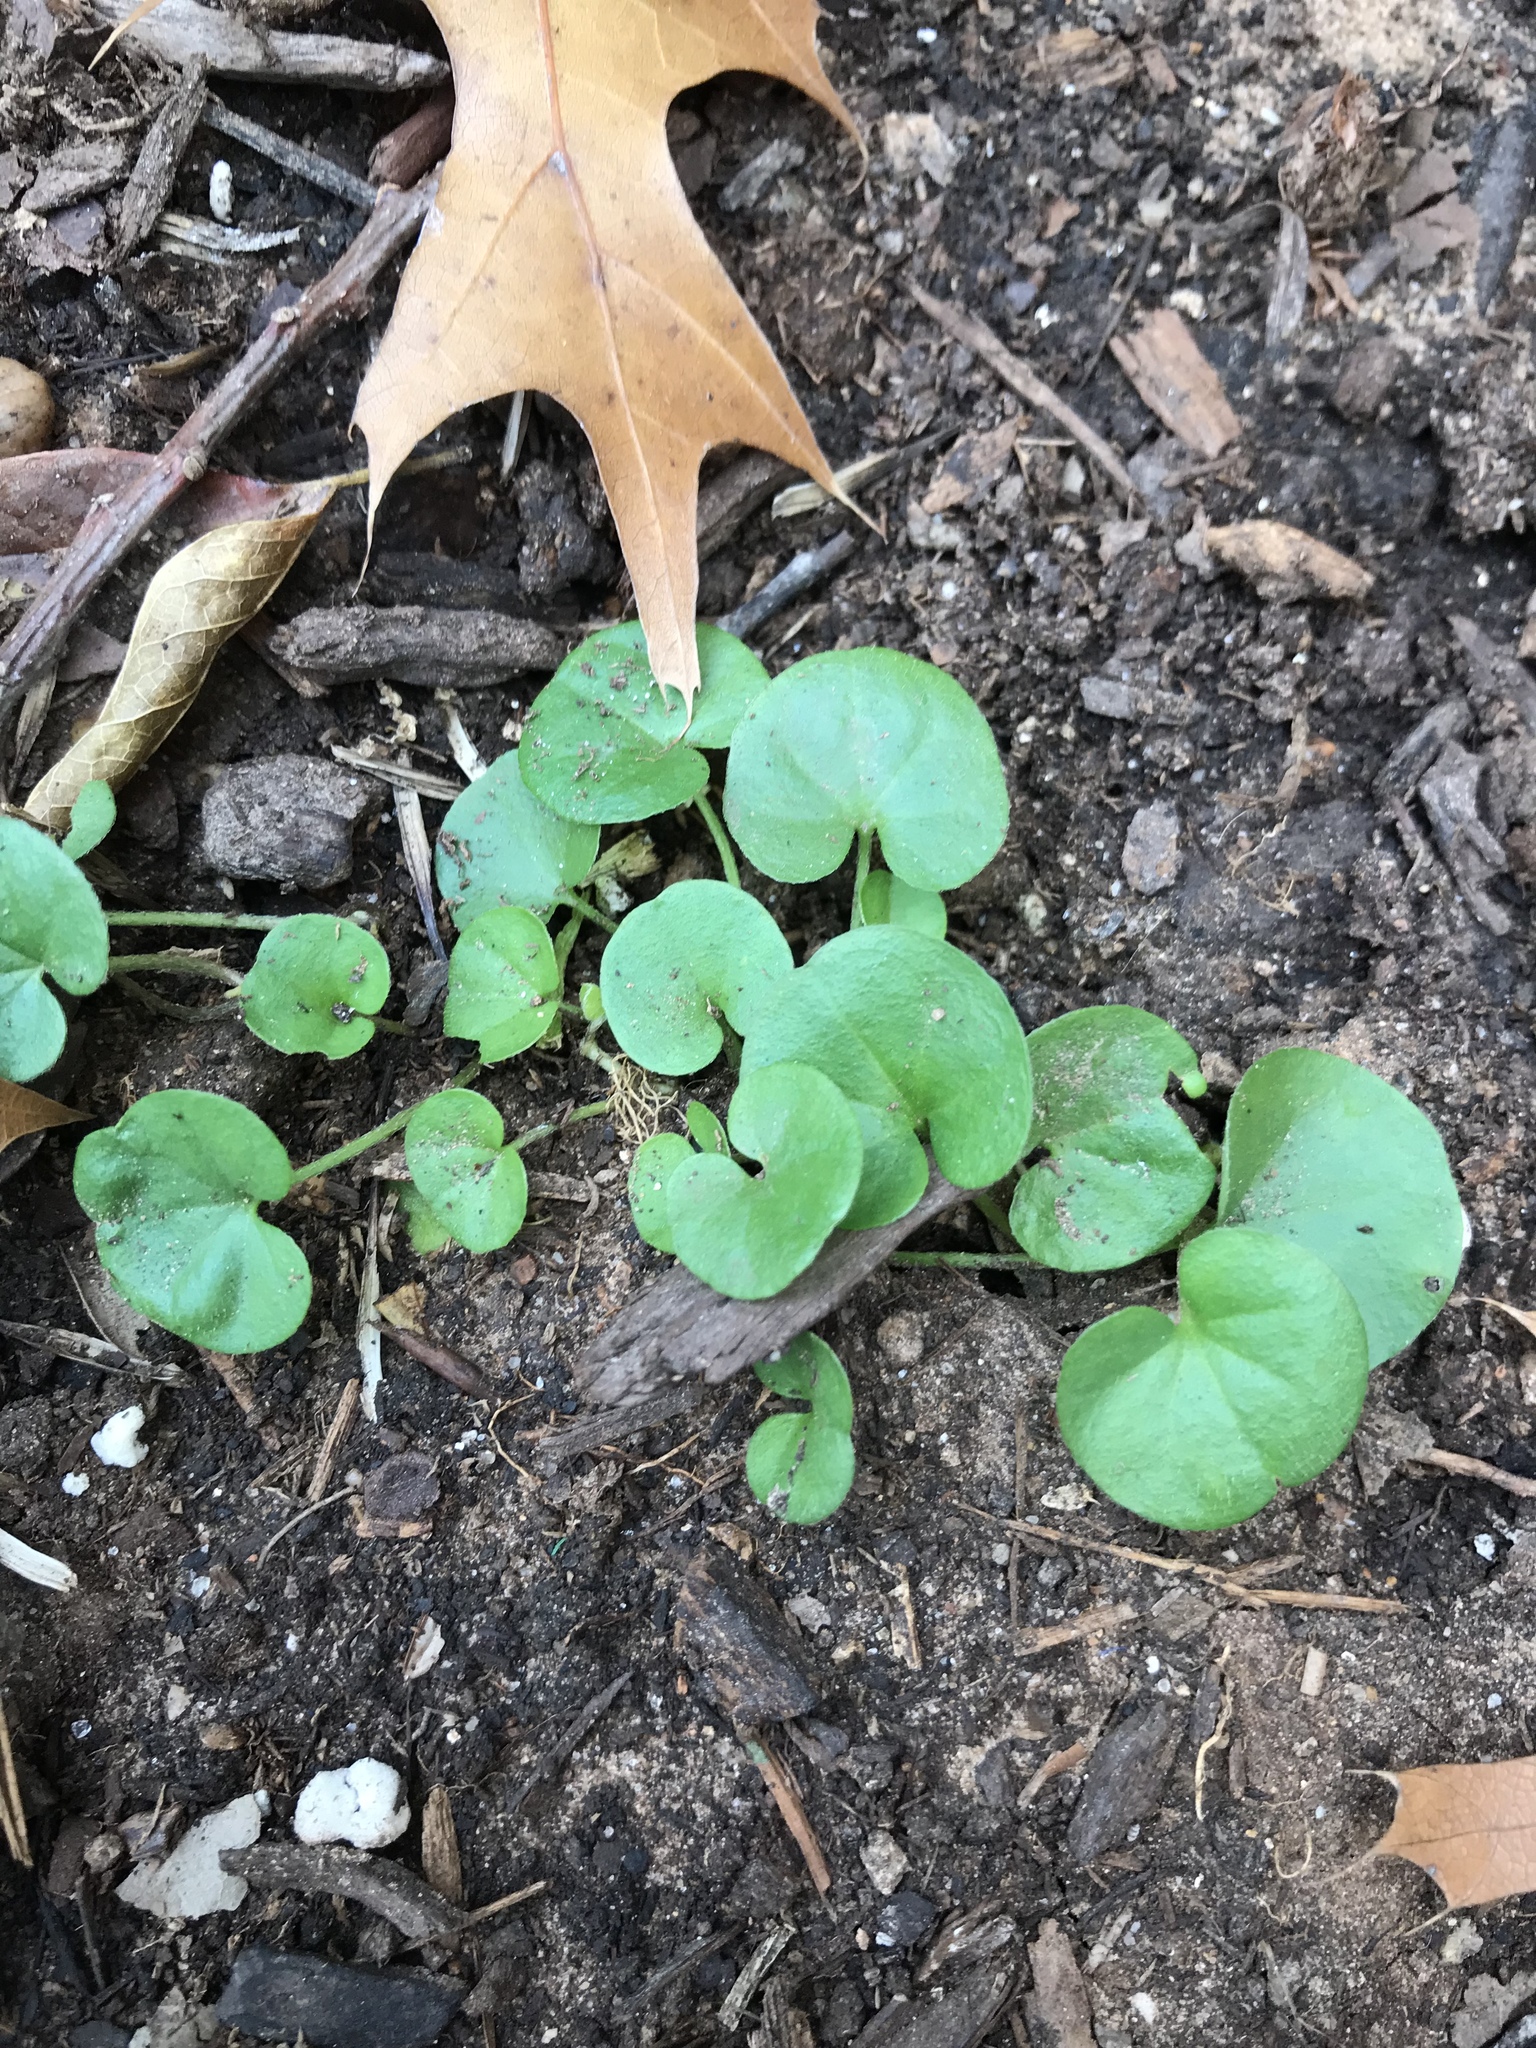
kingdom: Plantae
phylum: Tracheophyta
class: Magnoliopsida
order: Solanales
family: Convolvulaceae
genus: Dichondra
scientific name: Dichondra carolinensis
